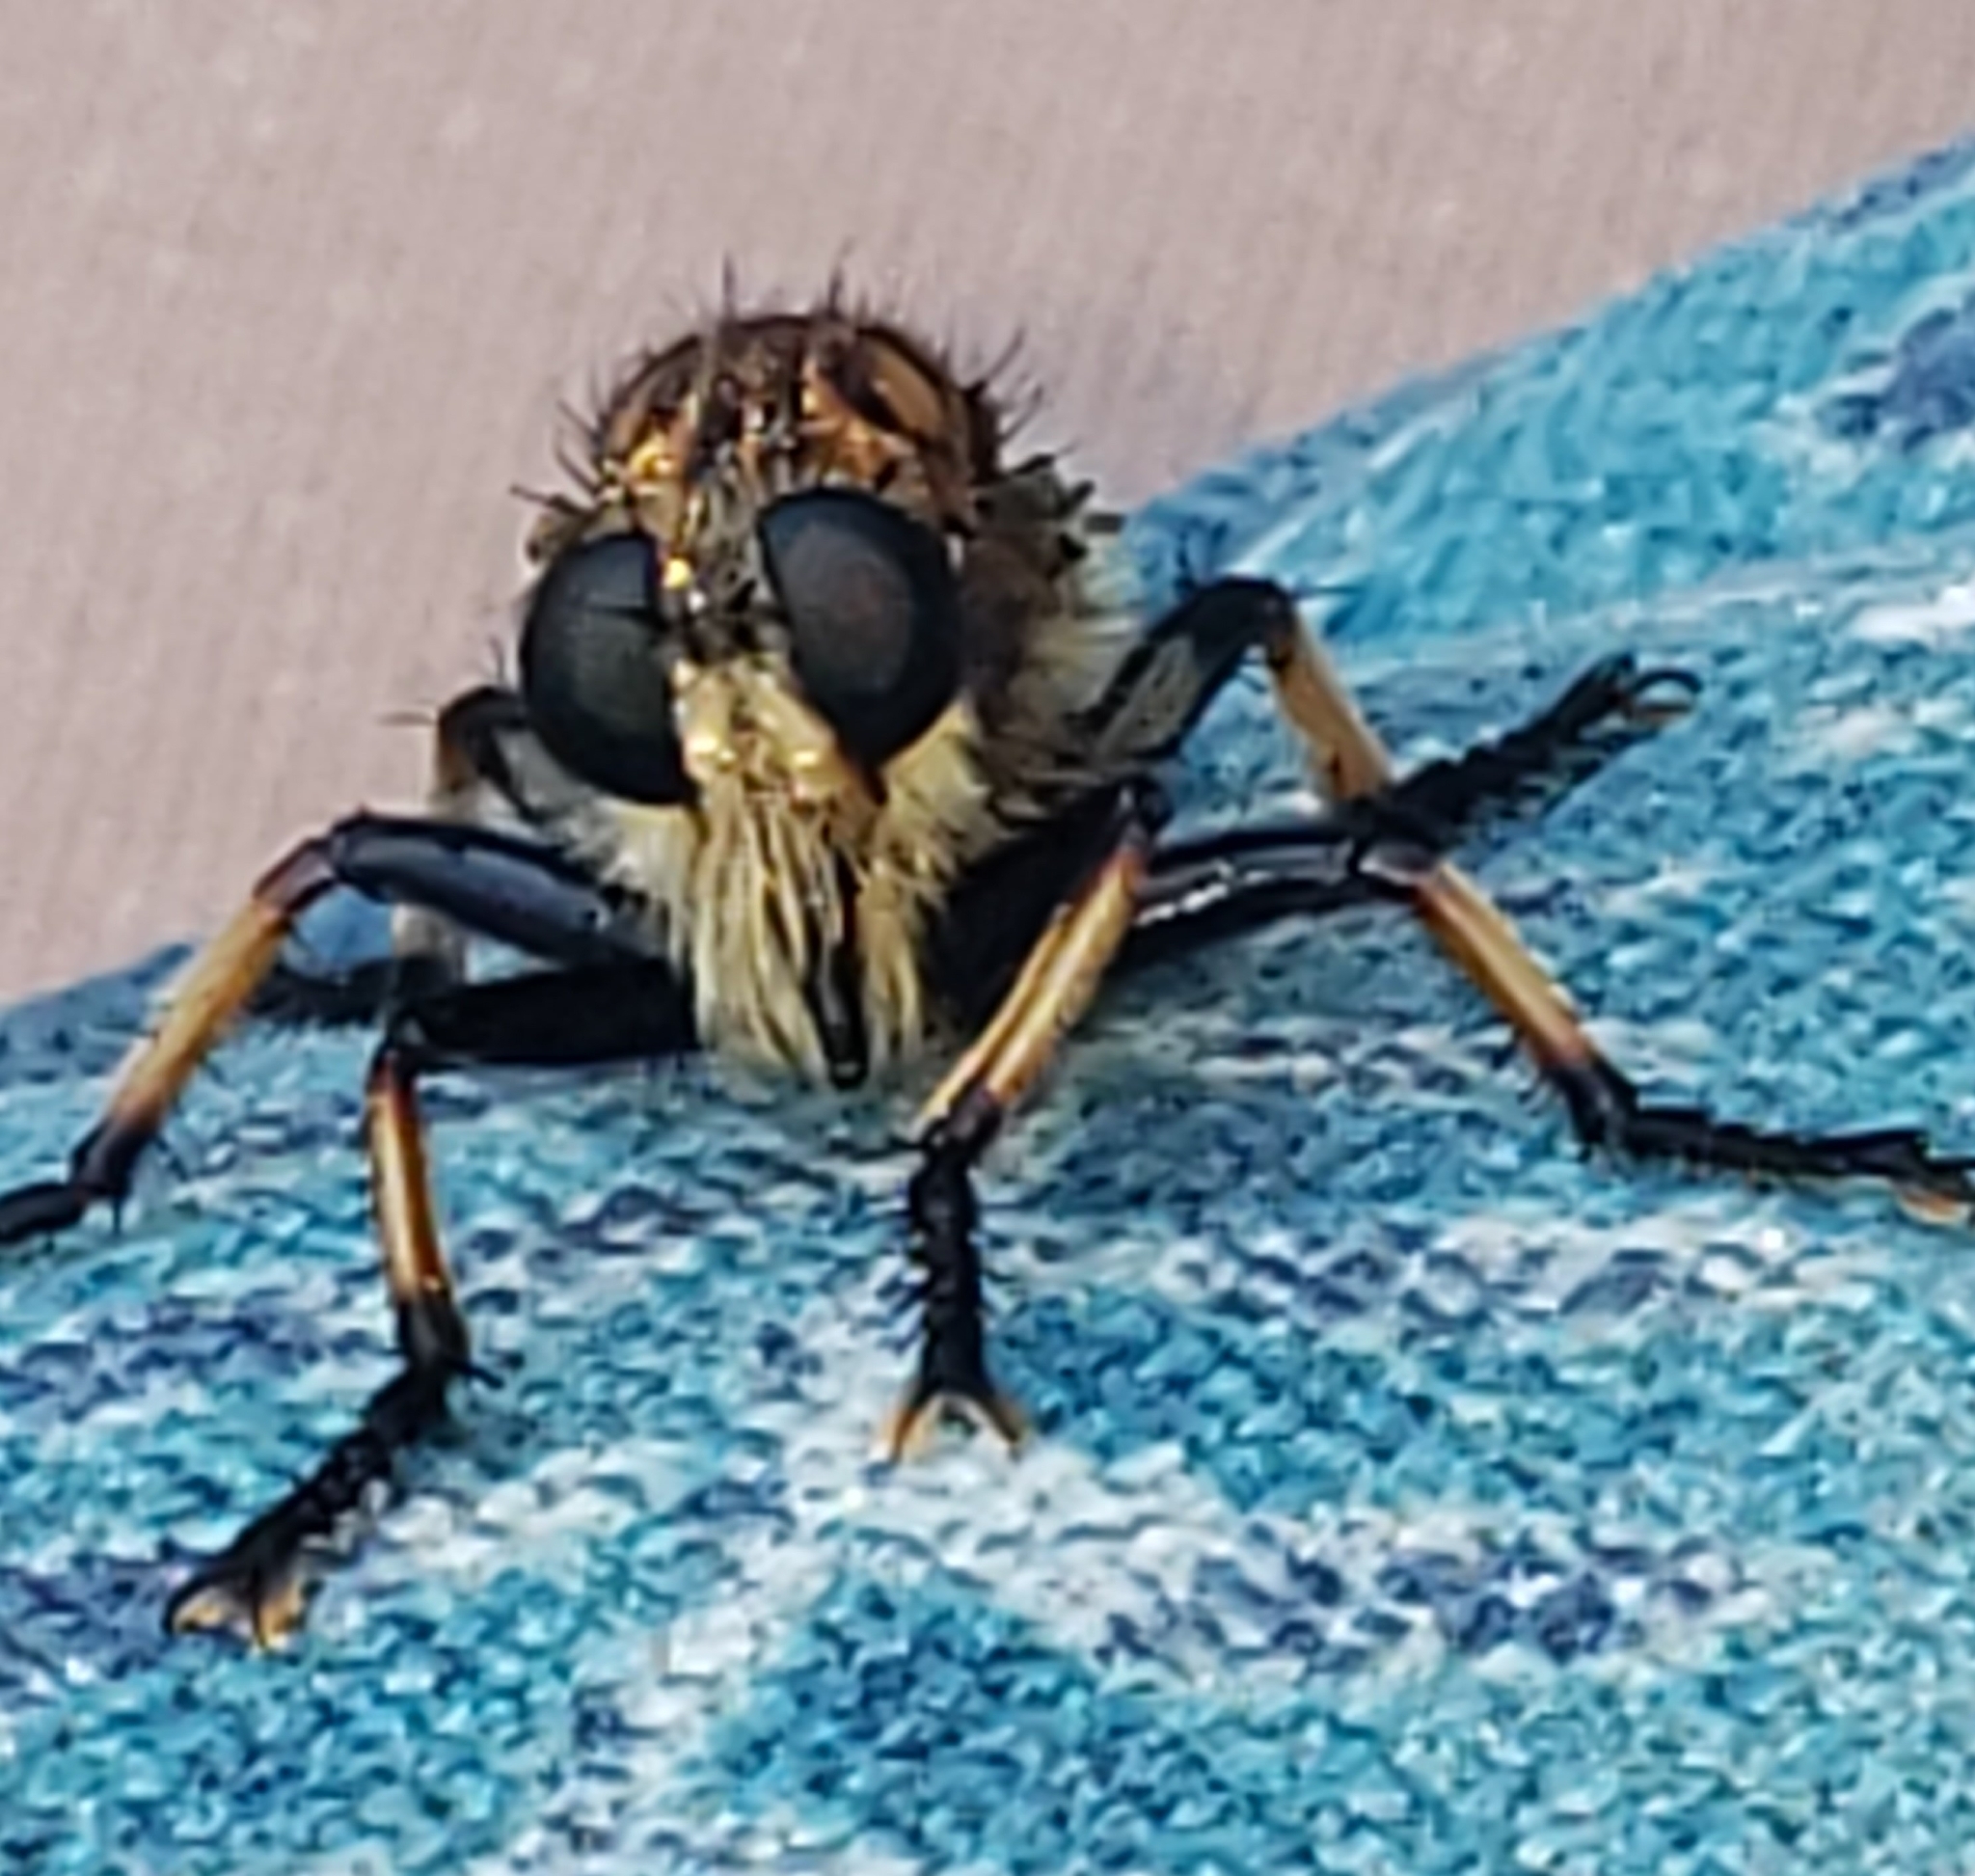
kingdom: Animalia
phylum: Arthropoda
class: Insecta
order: Diptera
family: Asilidae
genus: Promachus
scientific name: Promachus rufipes
